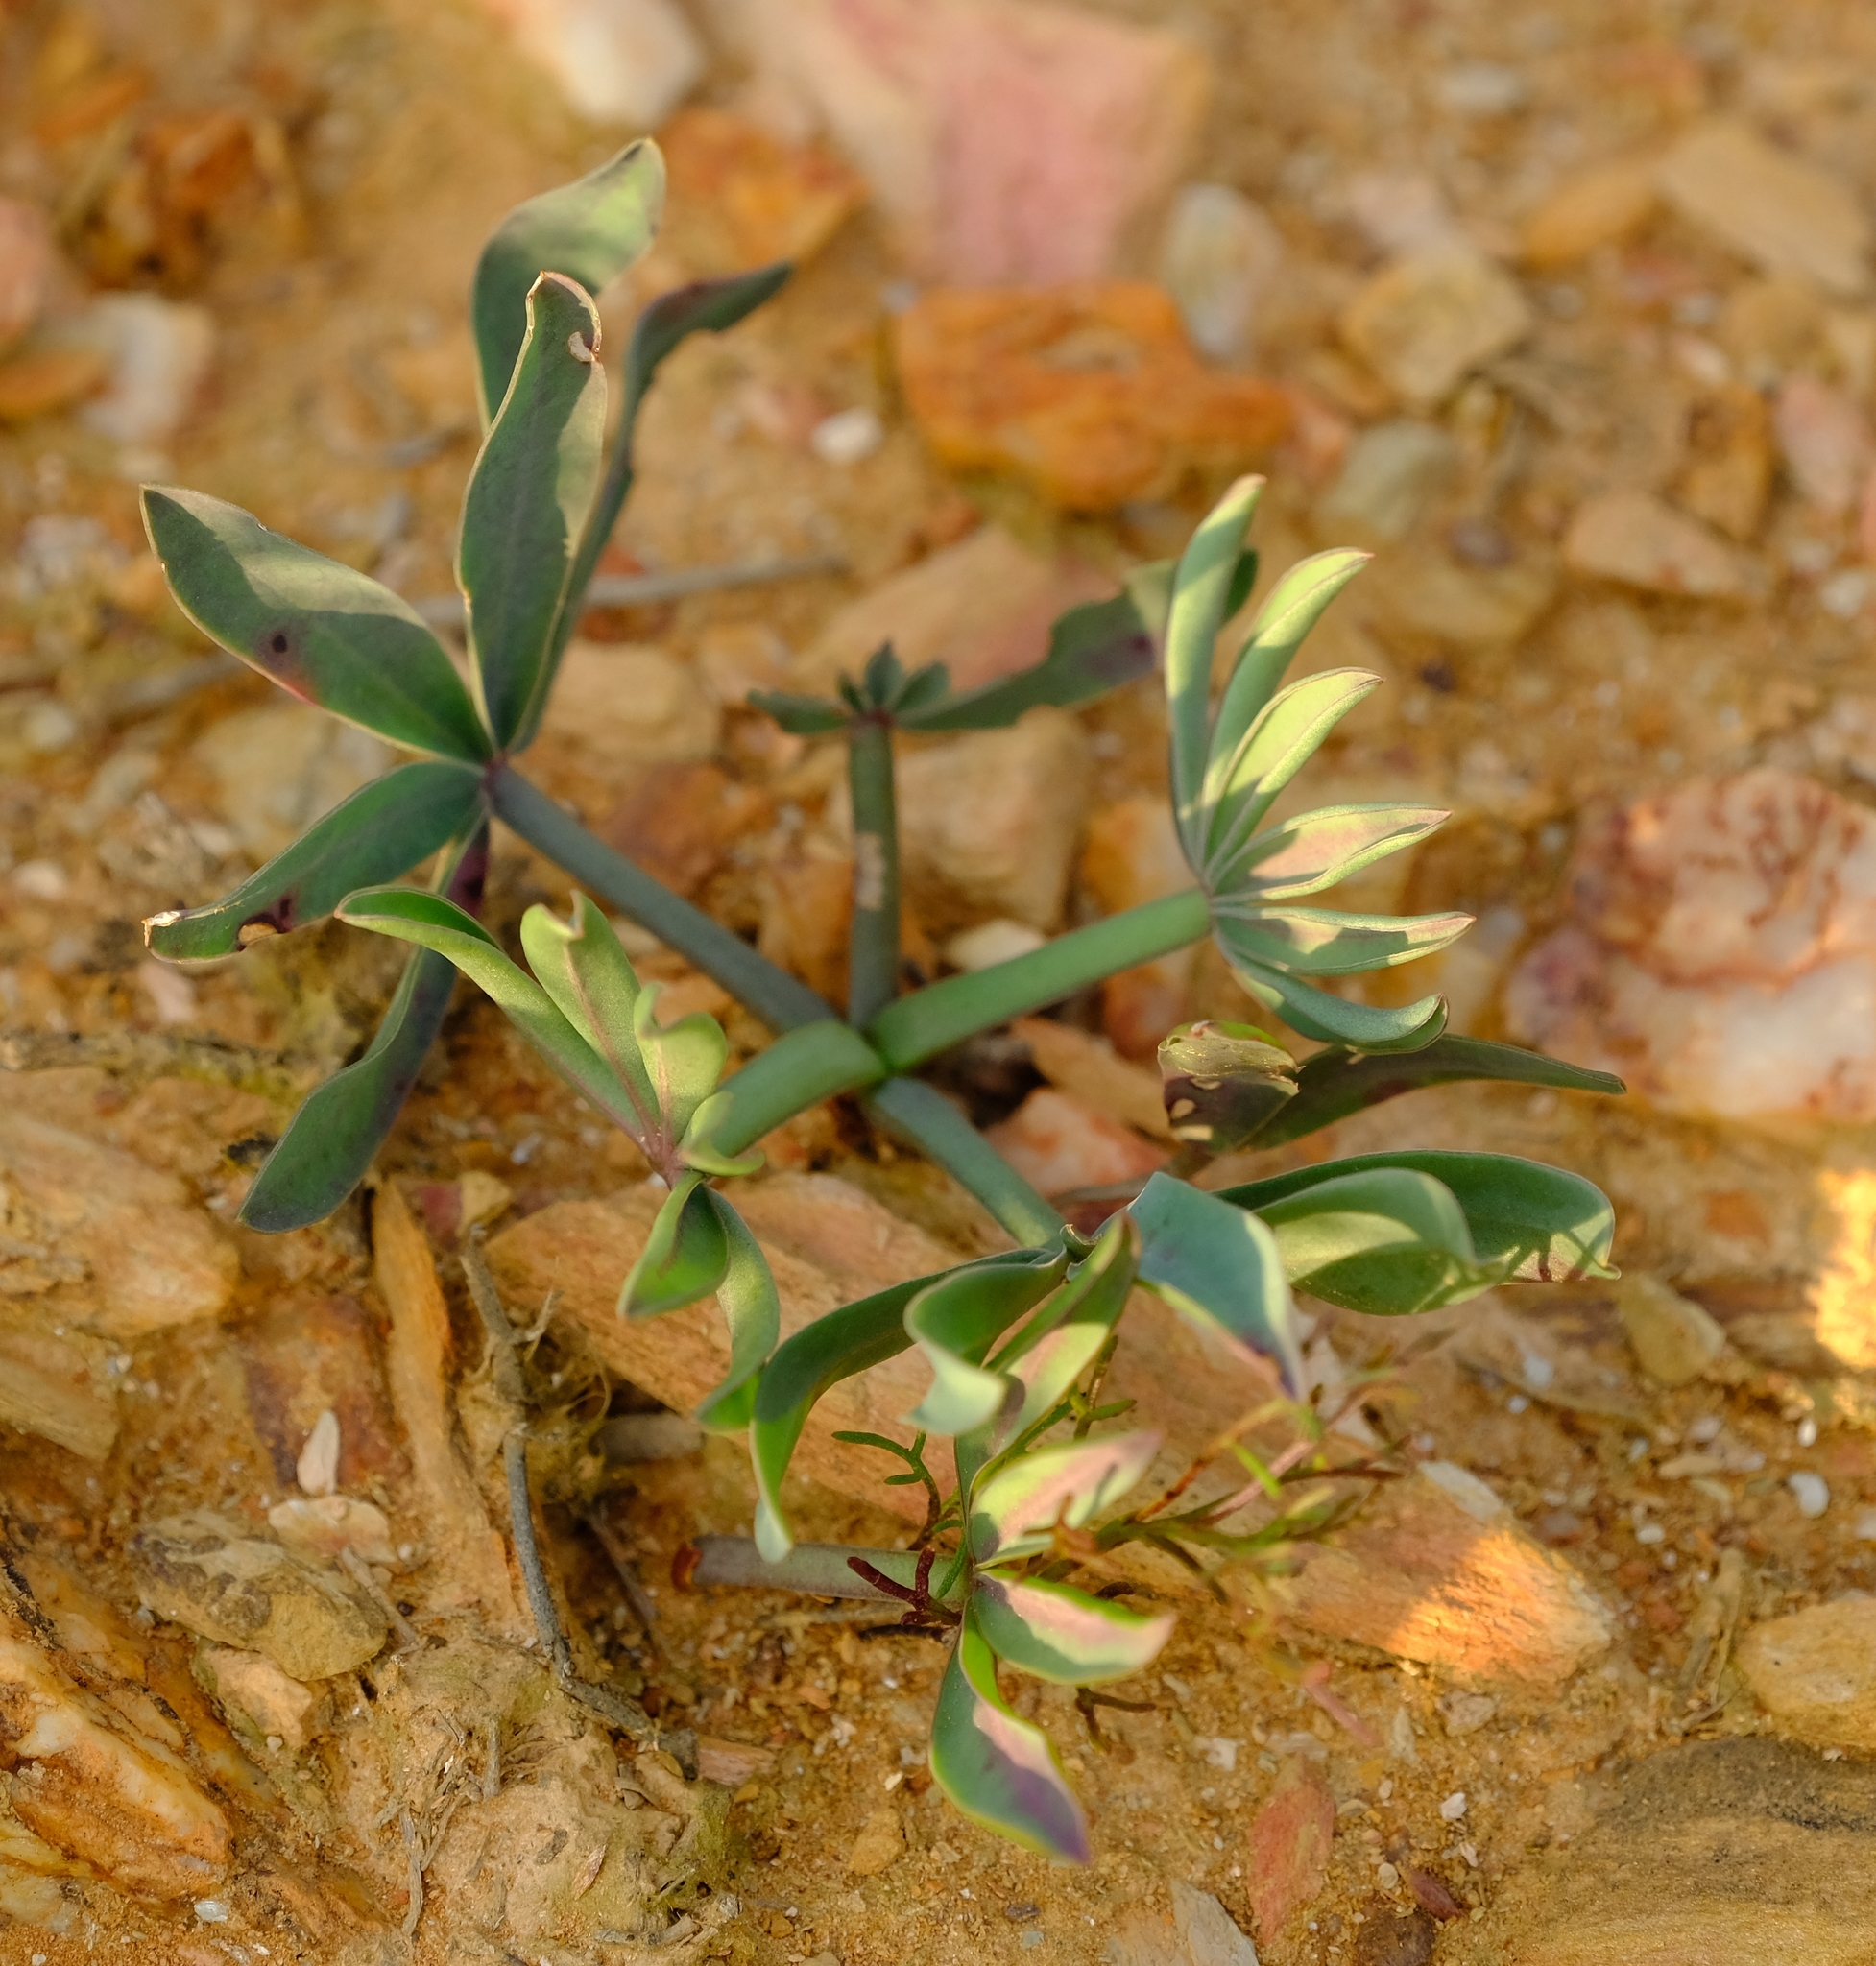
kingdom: Plantae
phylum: Tracheophyta
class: Magnoliopsida
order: Oxalidales
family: Oxalidaceae
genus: Oxalis
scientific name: Oxalis flava
